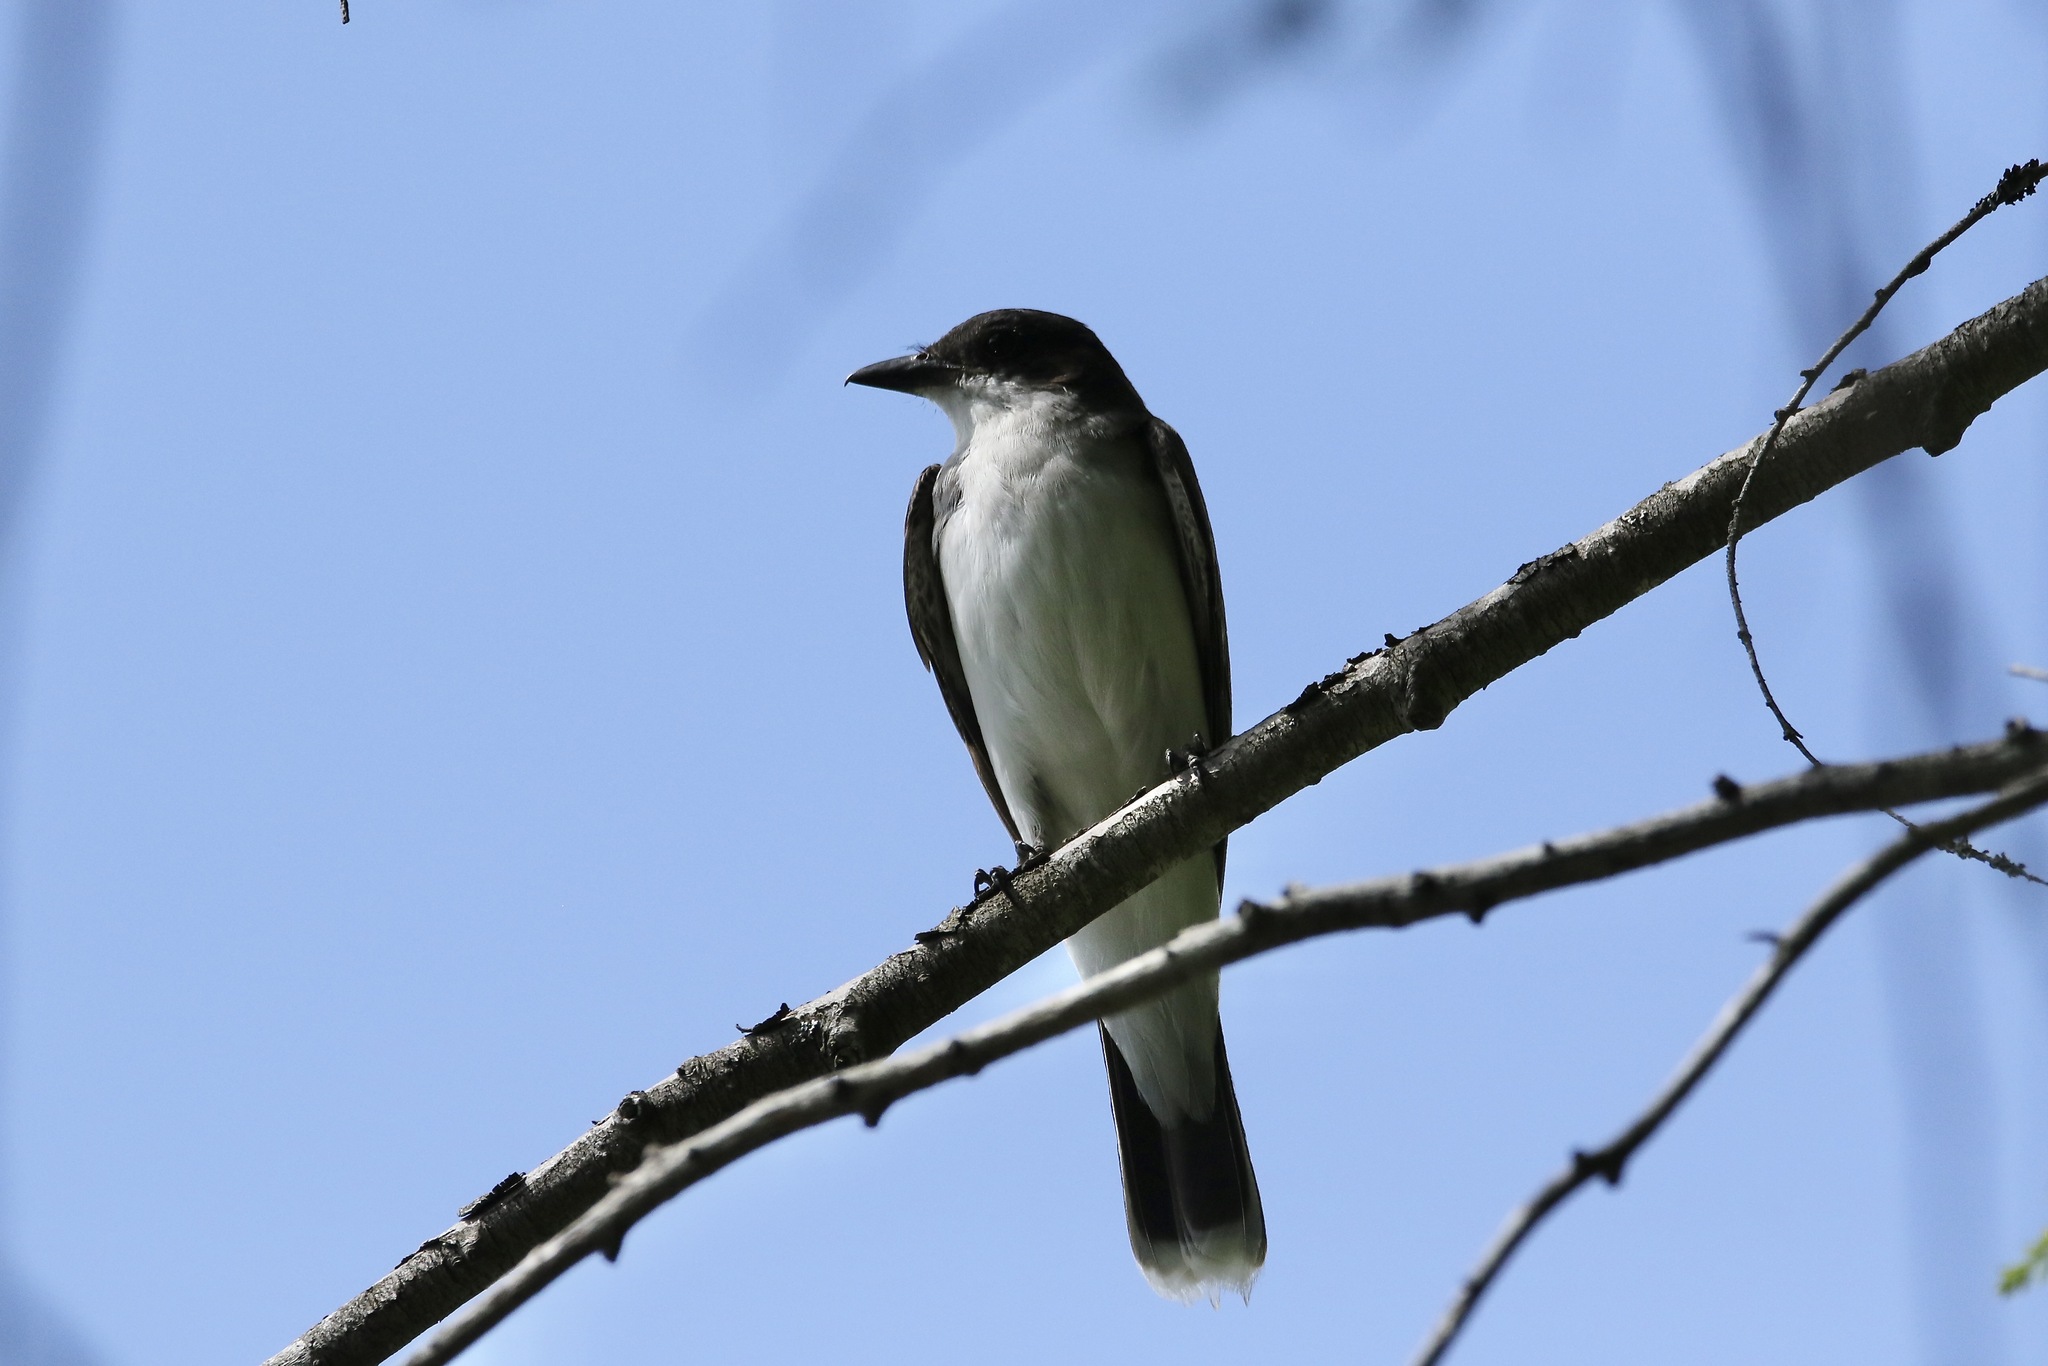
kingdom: Animalia
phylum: Chordata
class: Aves
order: Passeriformes
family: Tyrannidae
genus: Tyrannus
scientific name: Tyrannus tyrannus
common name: Eastern kingbird
